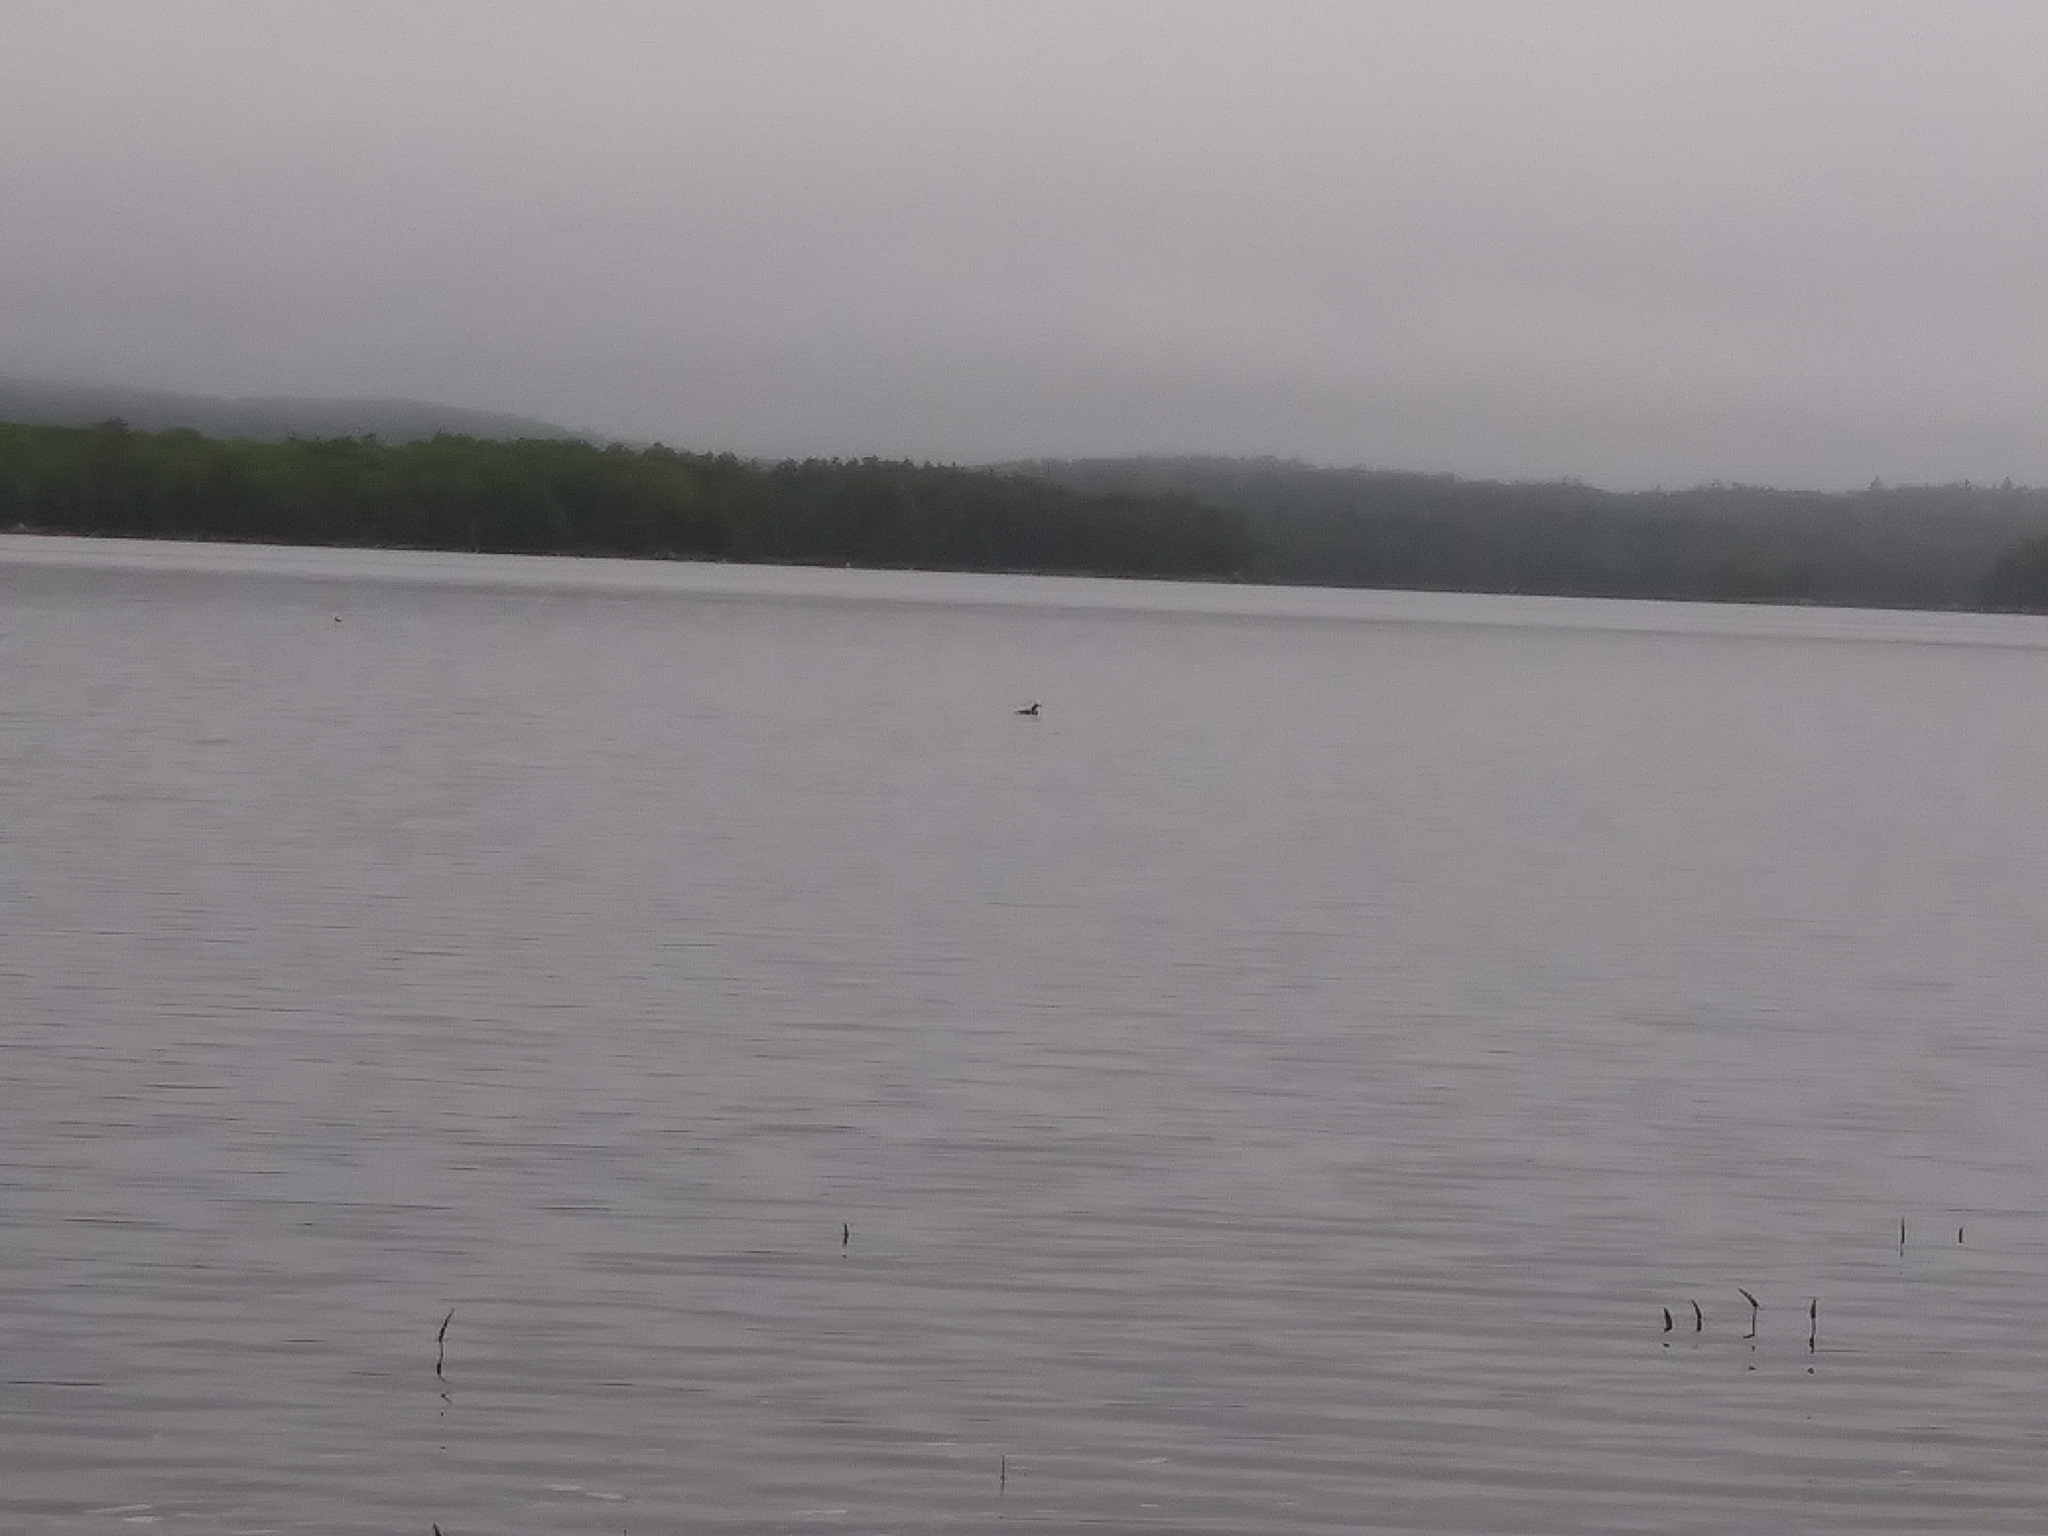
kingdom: Animalia
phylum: Chordata
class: Aves
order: Gaviiformes
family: Gaviidae
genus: Gavia
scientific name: Gavia immer
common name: Common loon
